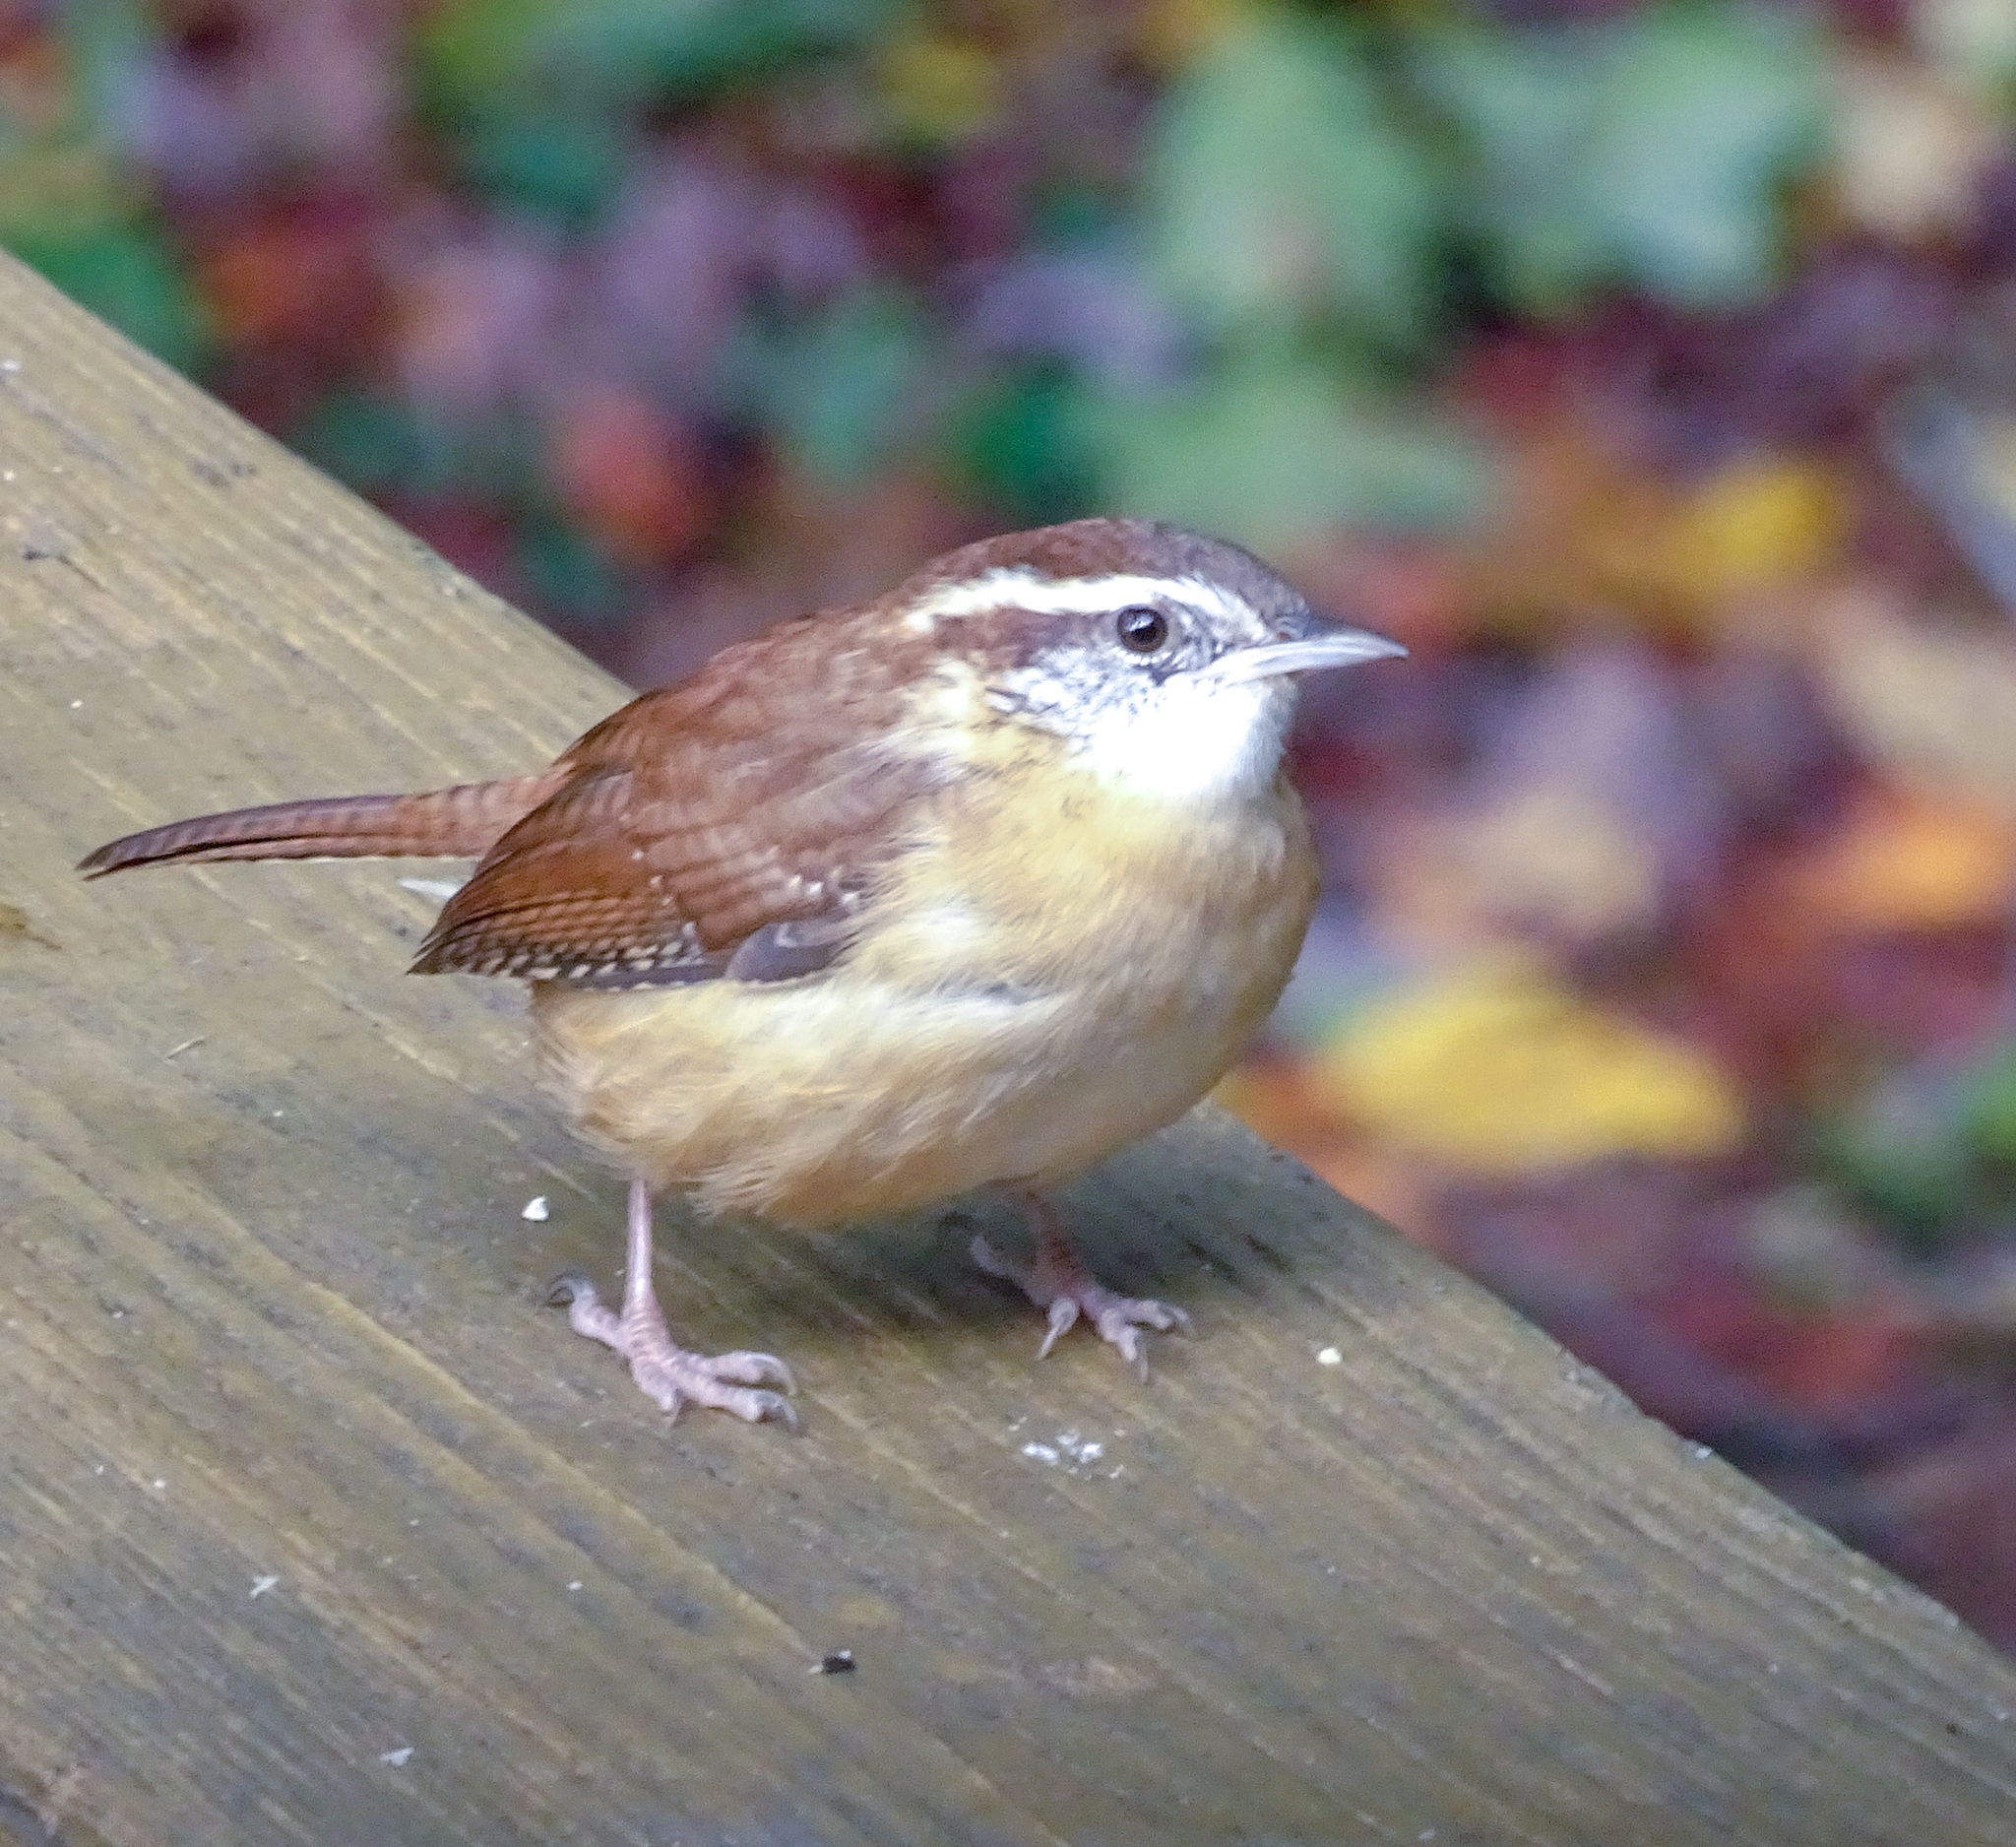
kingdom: Animalia
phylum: Chordata
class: Aves
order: Passeriformes
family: Troglodytidae
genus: Thryothorus
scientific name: Thryothorus ludovicianus
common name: Carolina wren
